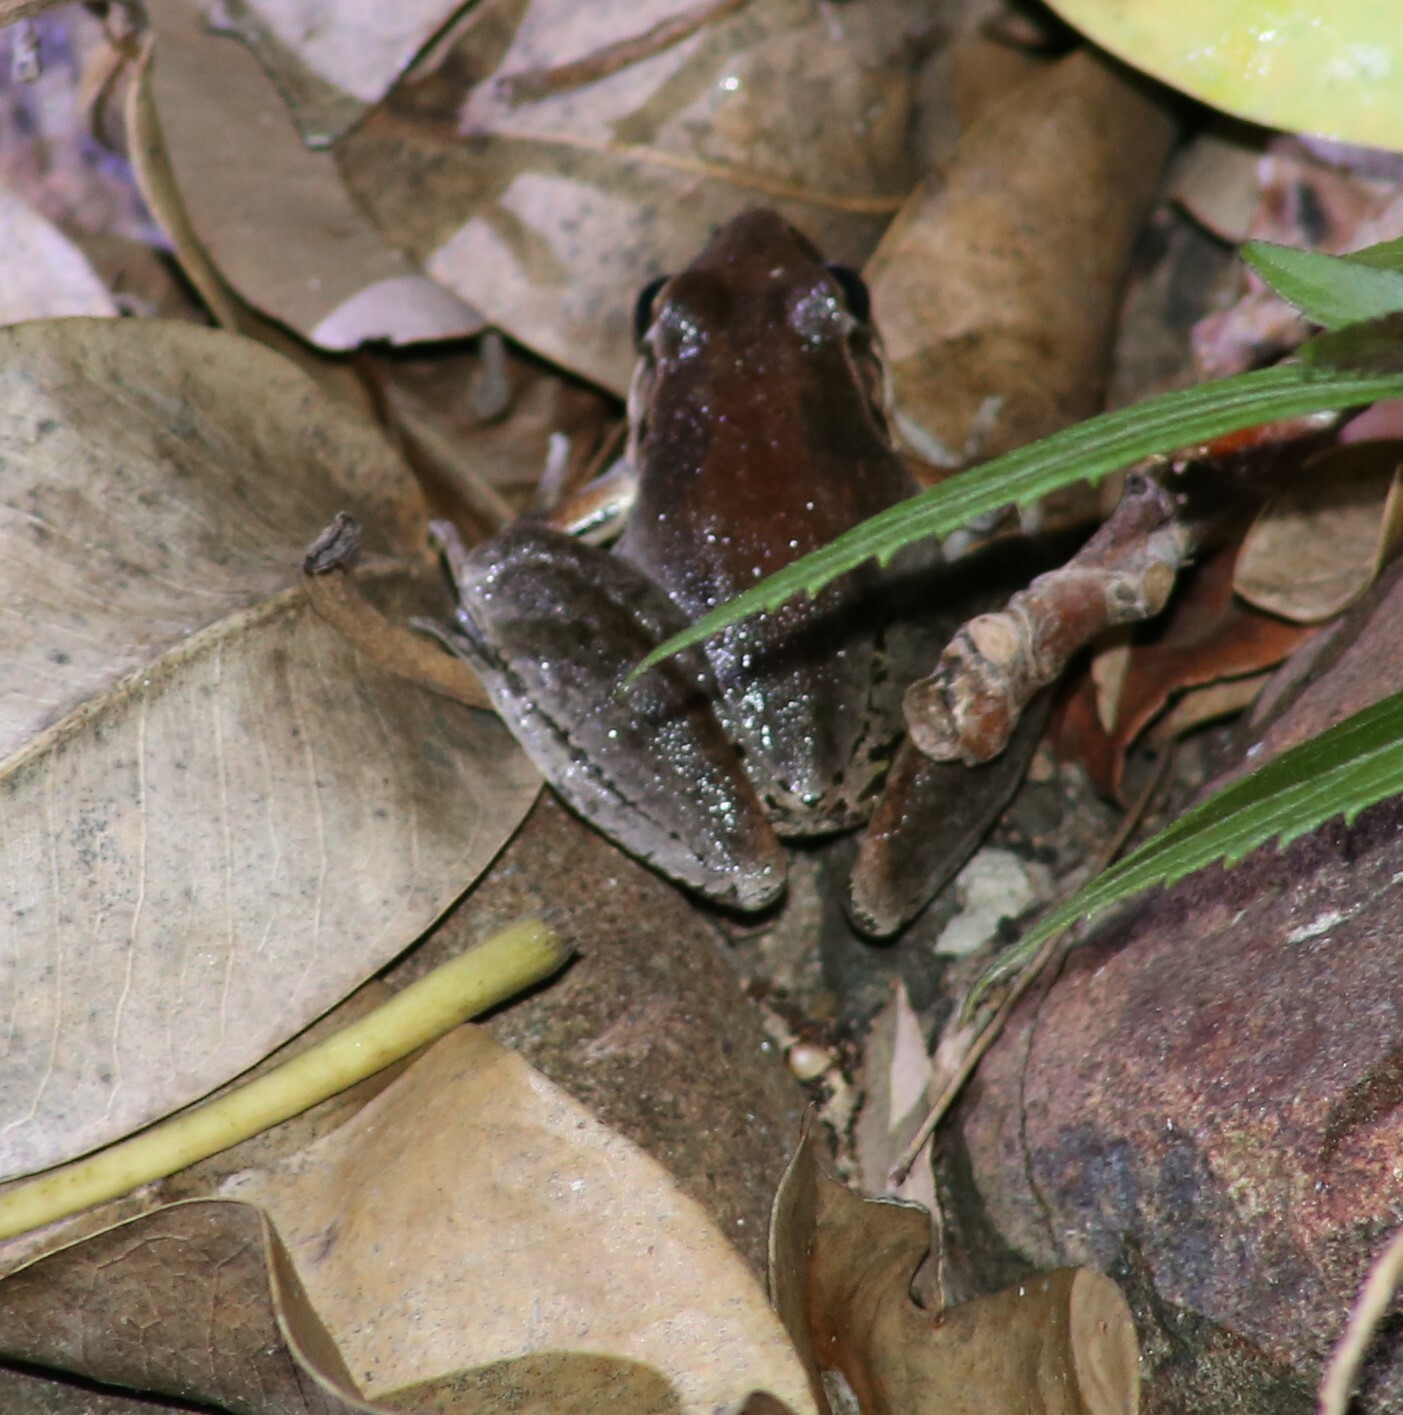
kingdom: Animalia
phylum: Chordata
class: Amphibia
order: Anura
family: Pelodryadidae
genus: Litoria
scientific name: Litoria latopalmata
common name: Broad-palmed rocket frog
